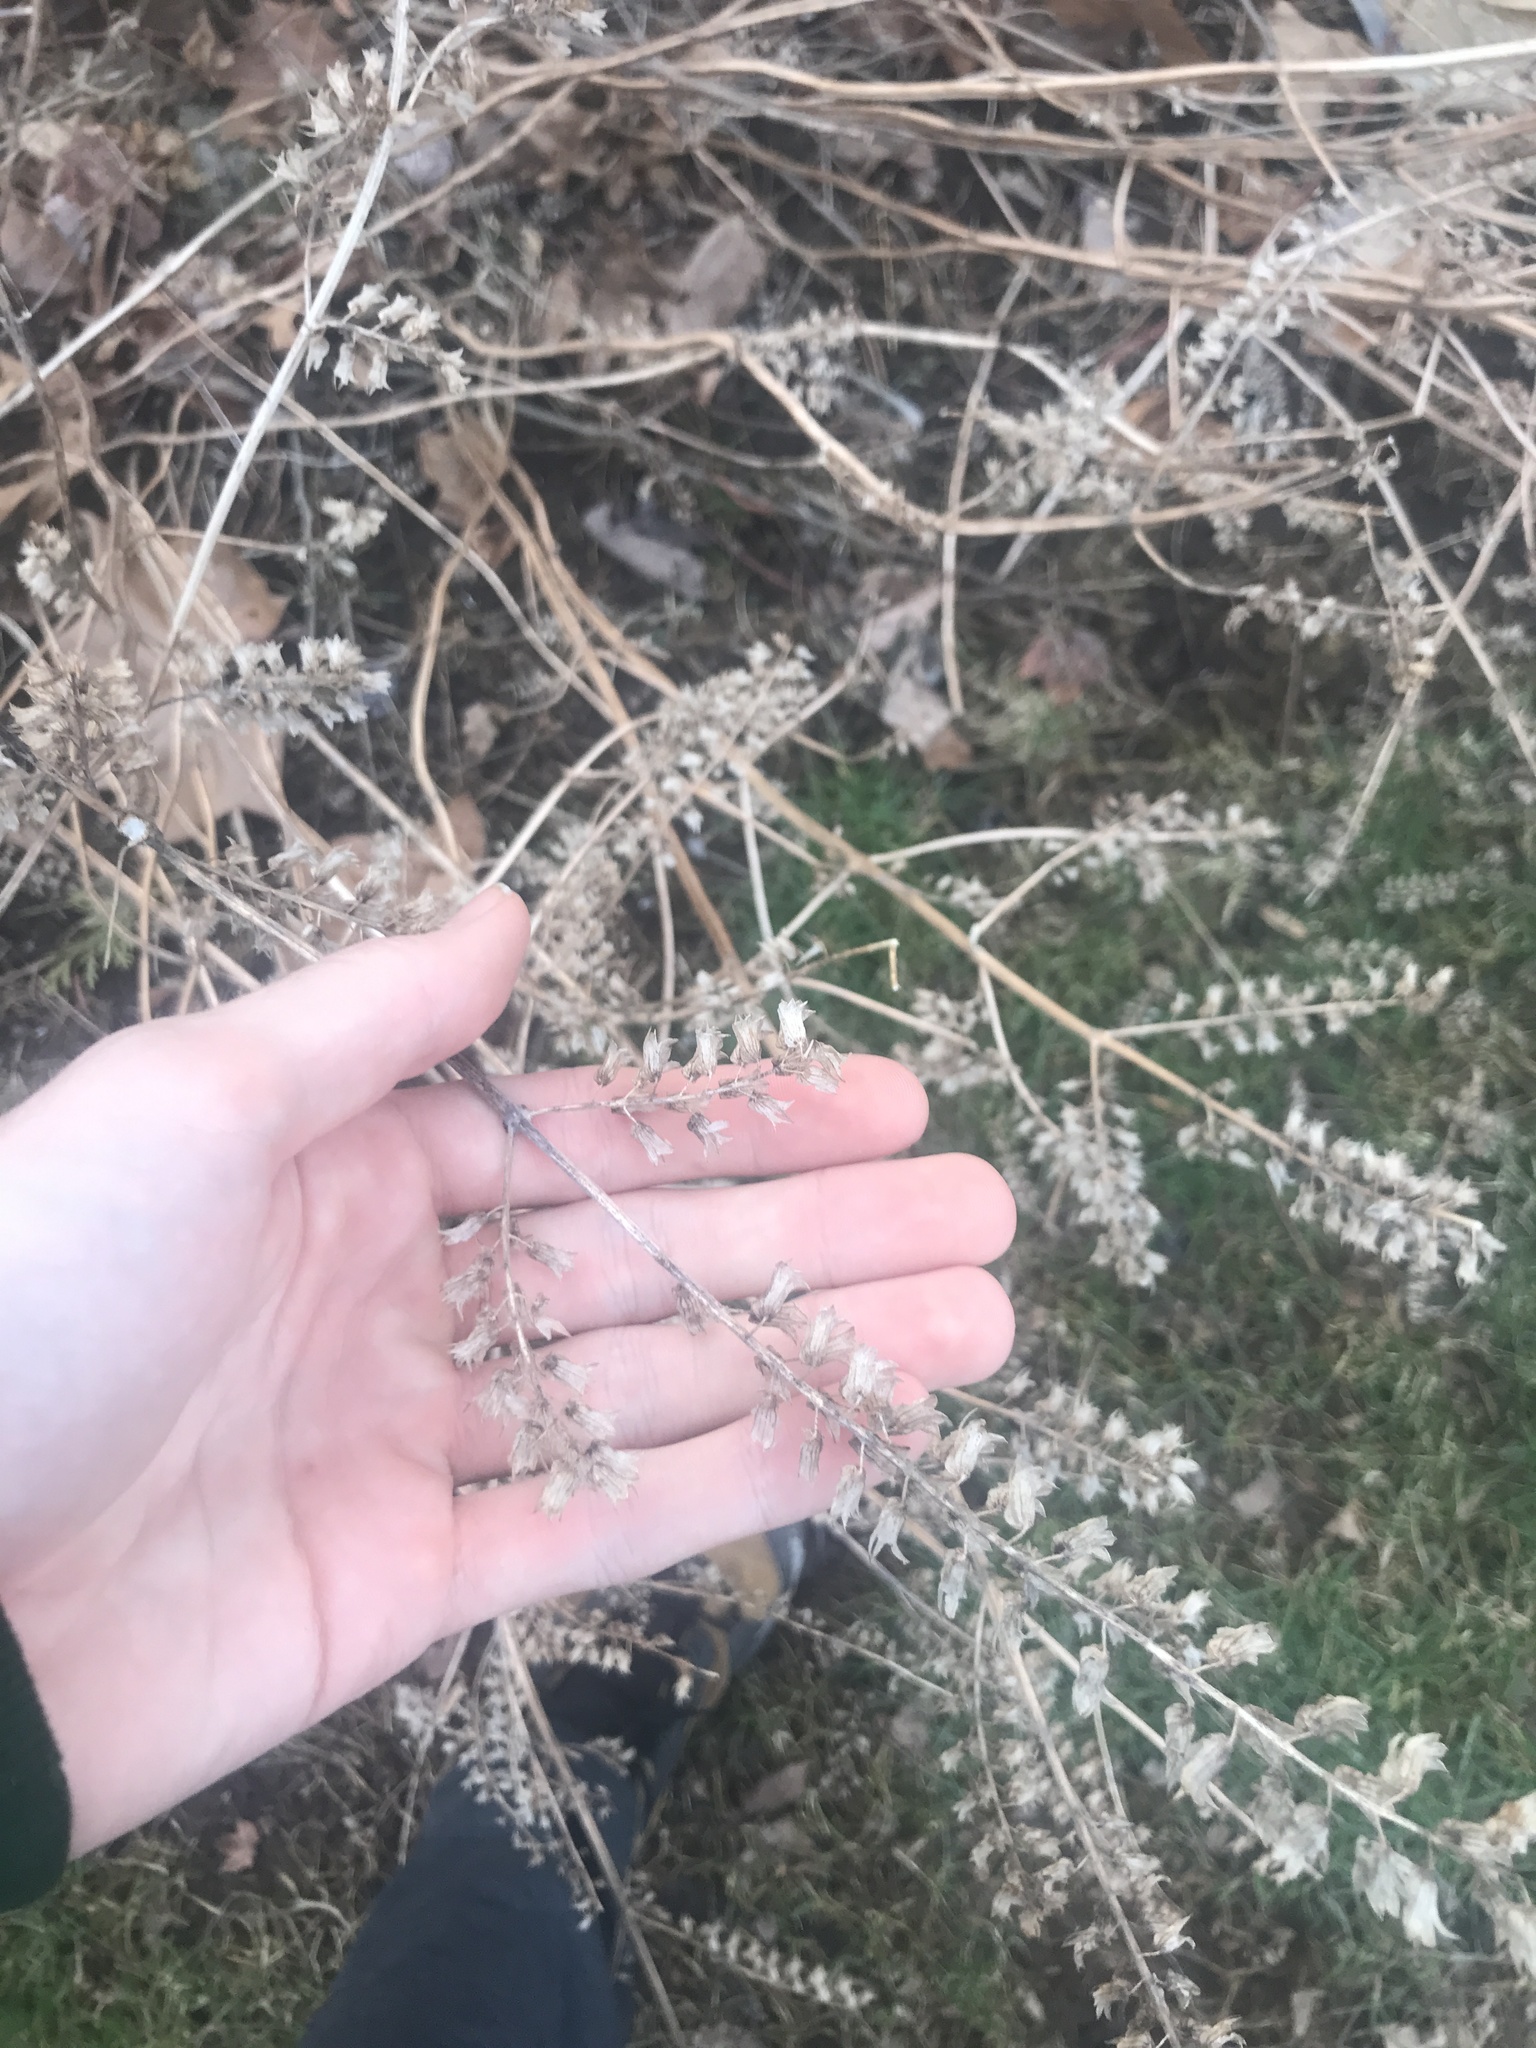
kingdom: Plantae
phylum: Tracheophyta
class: Magnoliopsida
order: Lamiales
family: Lamiaceae
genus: Perilla
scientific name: Perilla frutescens
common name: Perilla
